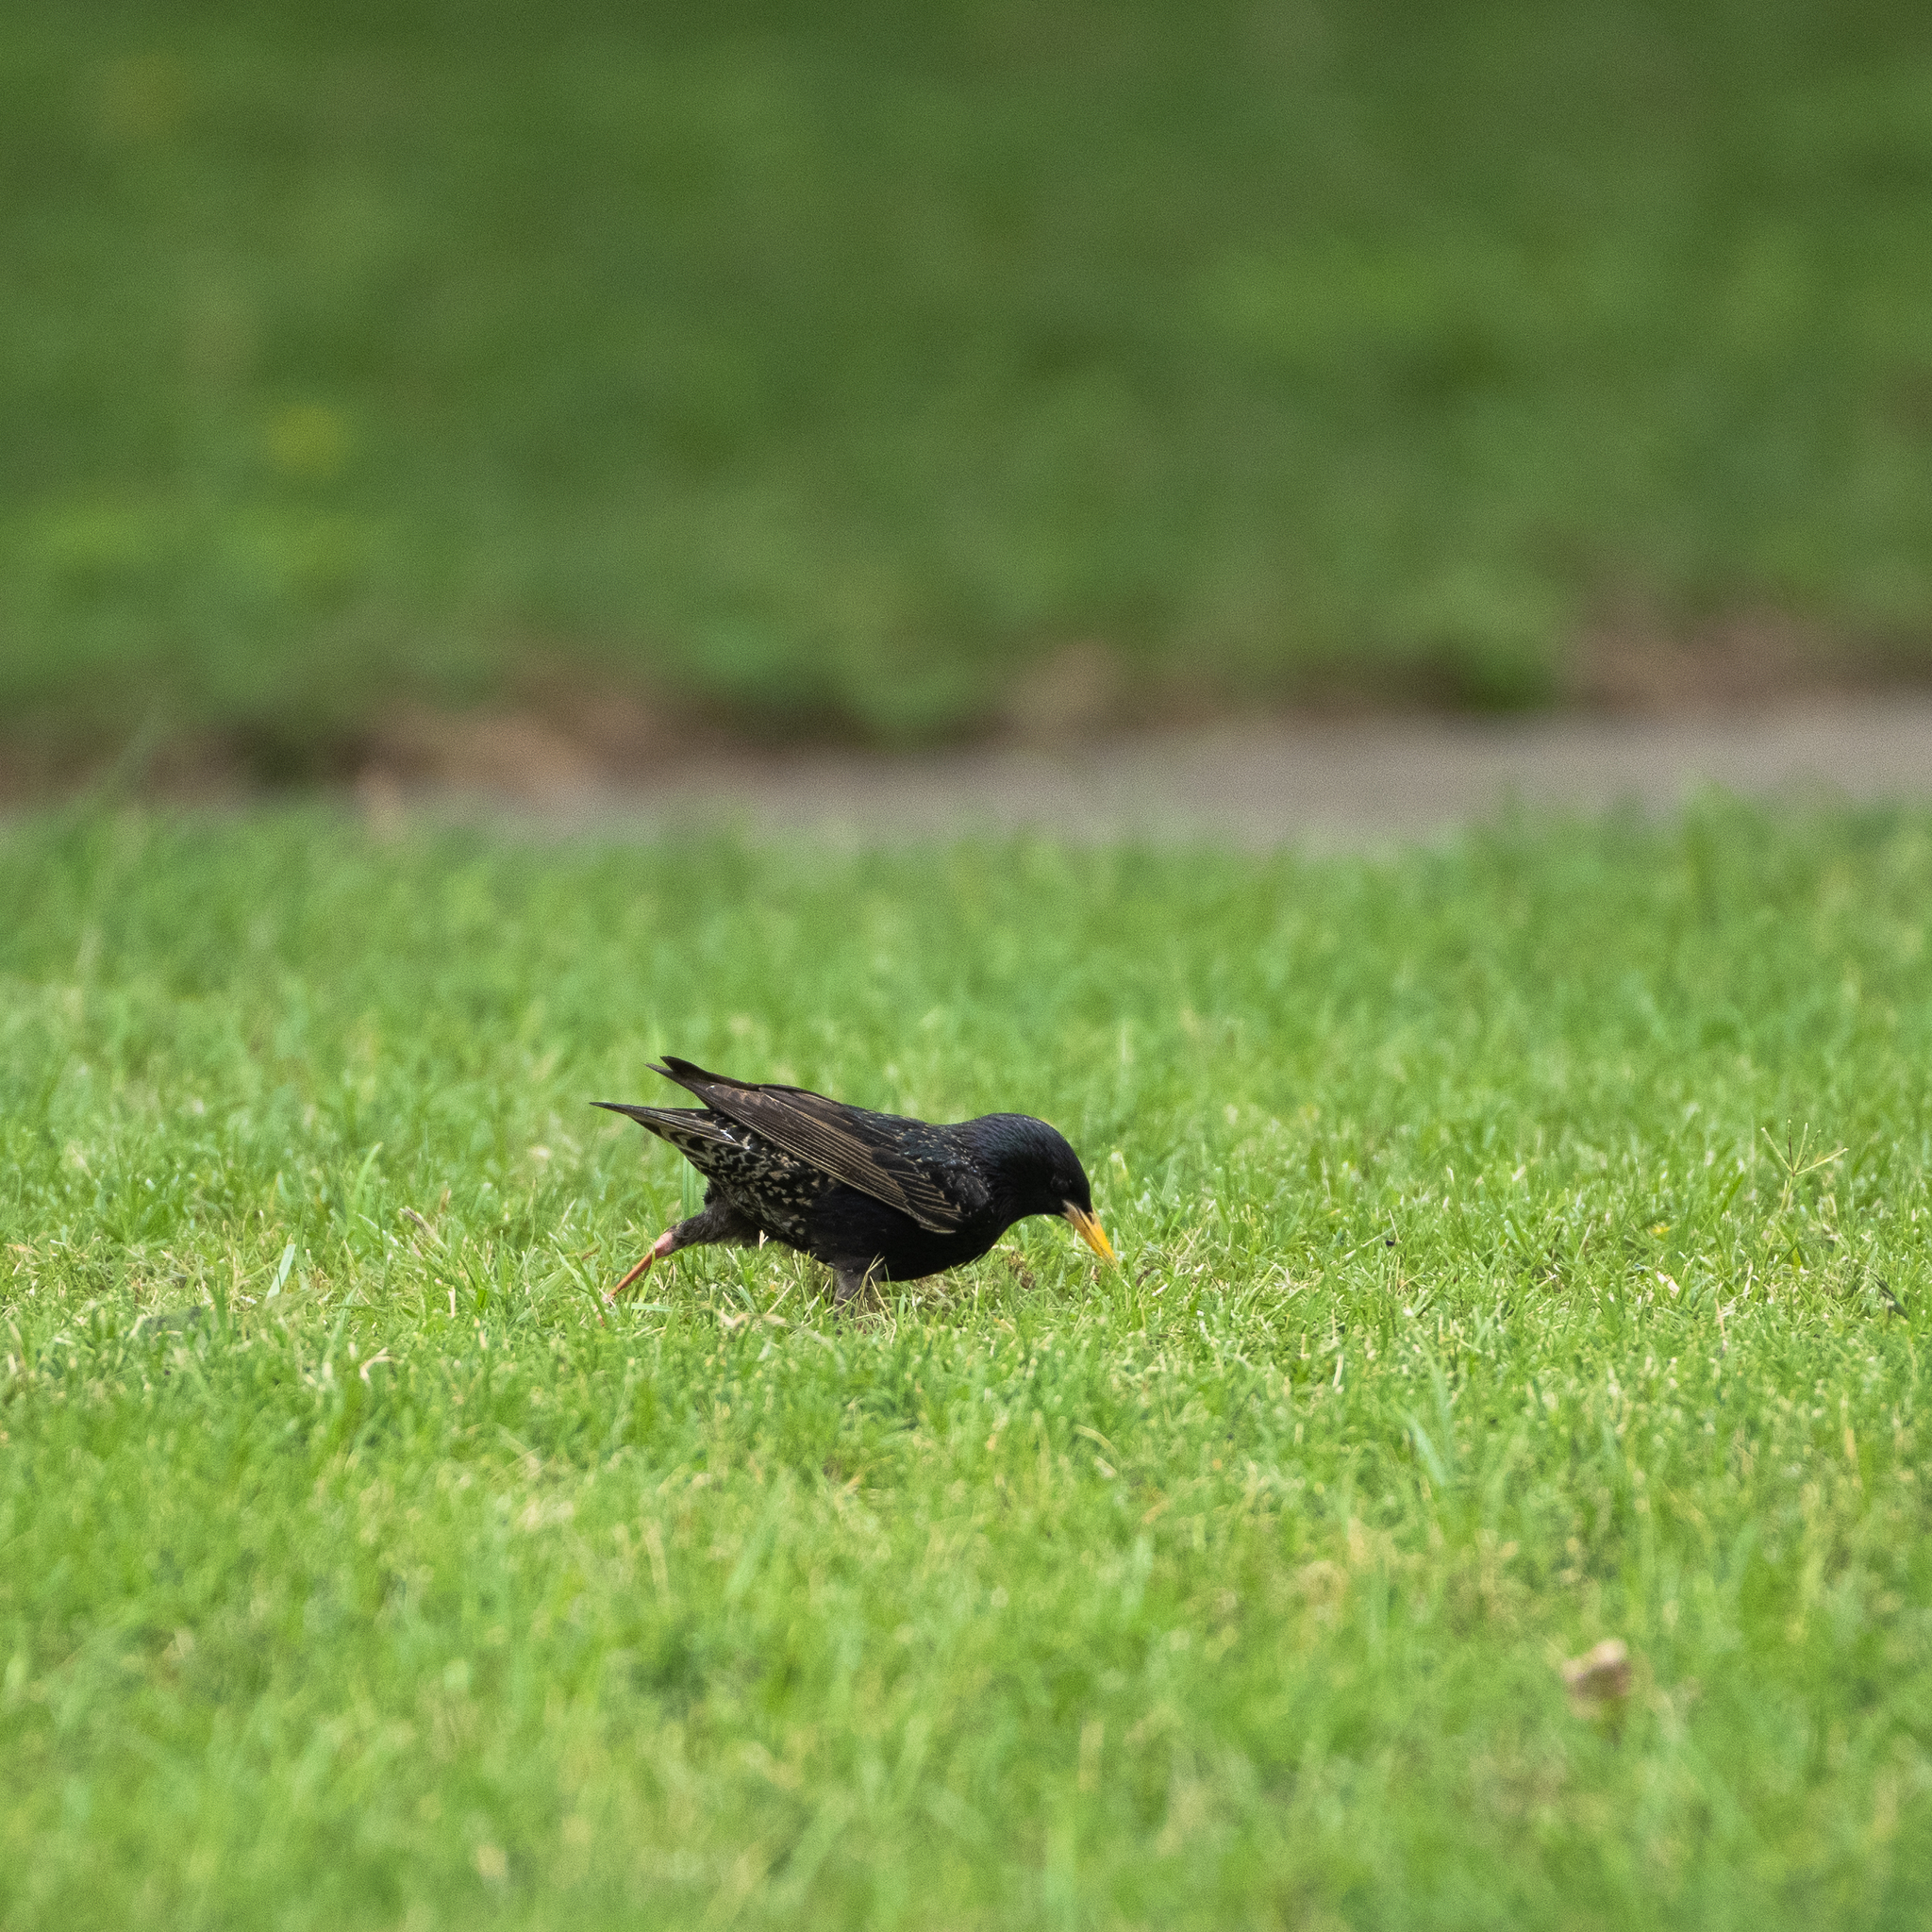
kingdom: Animalia
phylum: Chordata
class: Aves
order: Passeriformes
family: Sturnidae
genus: Sturnus
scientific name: Sturnus vulgaris
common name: Common starling
